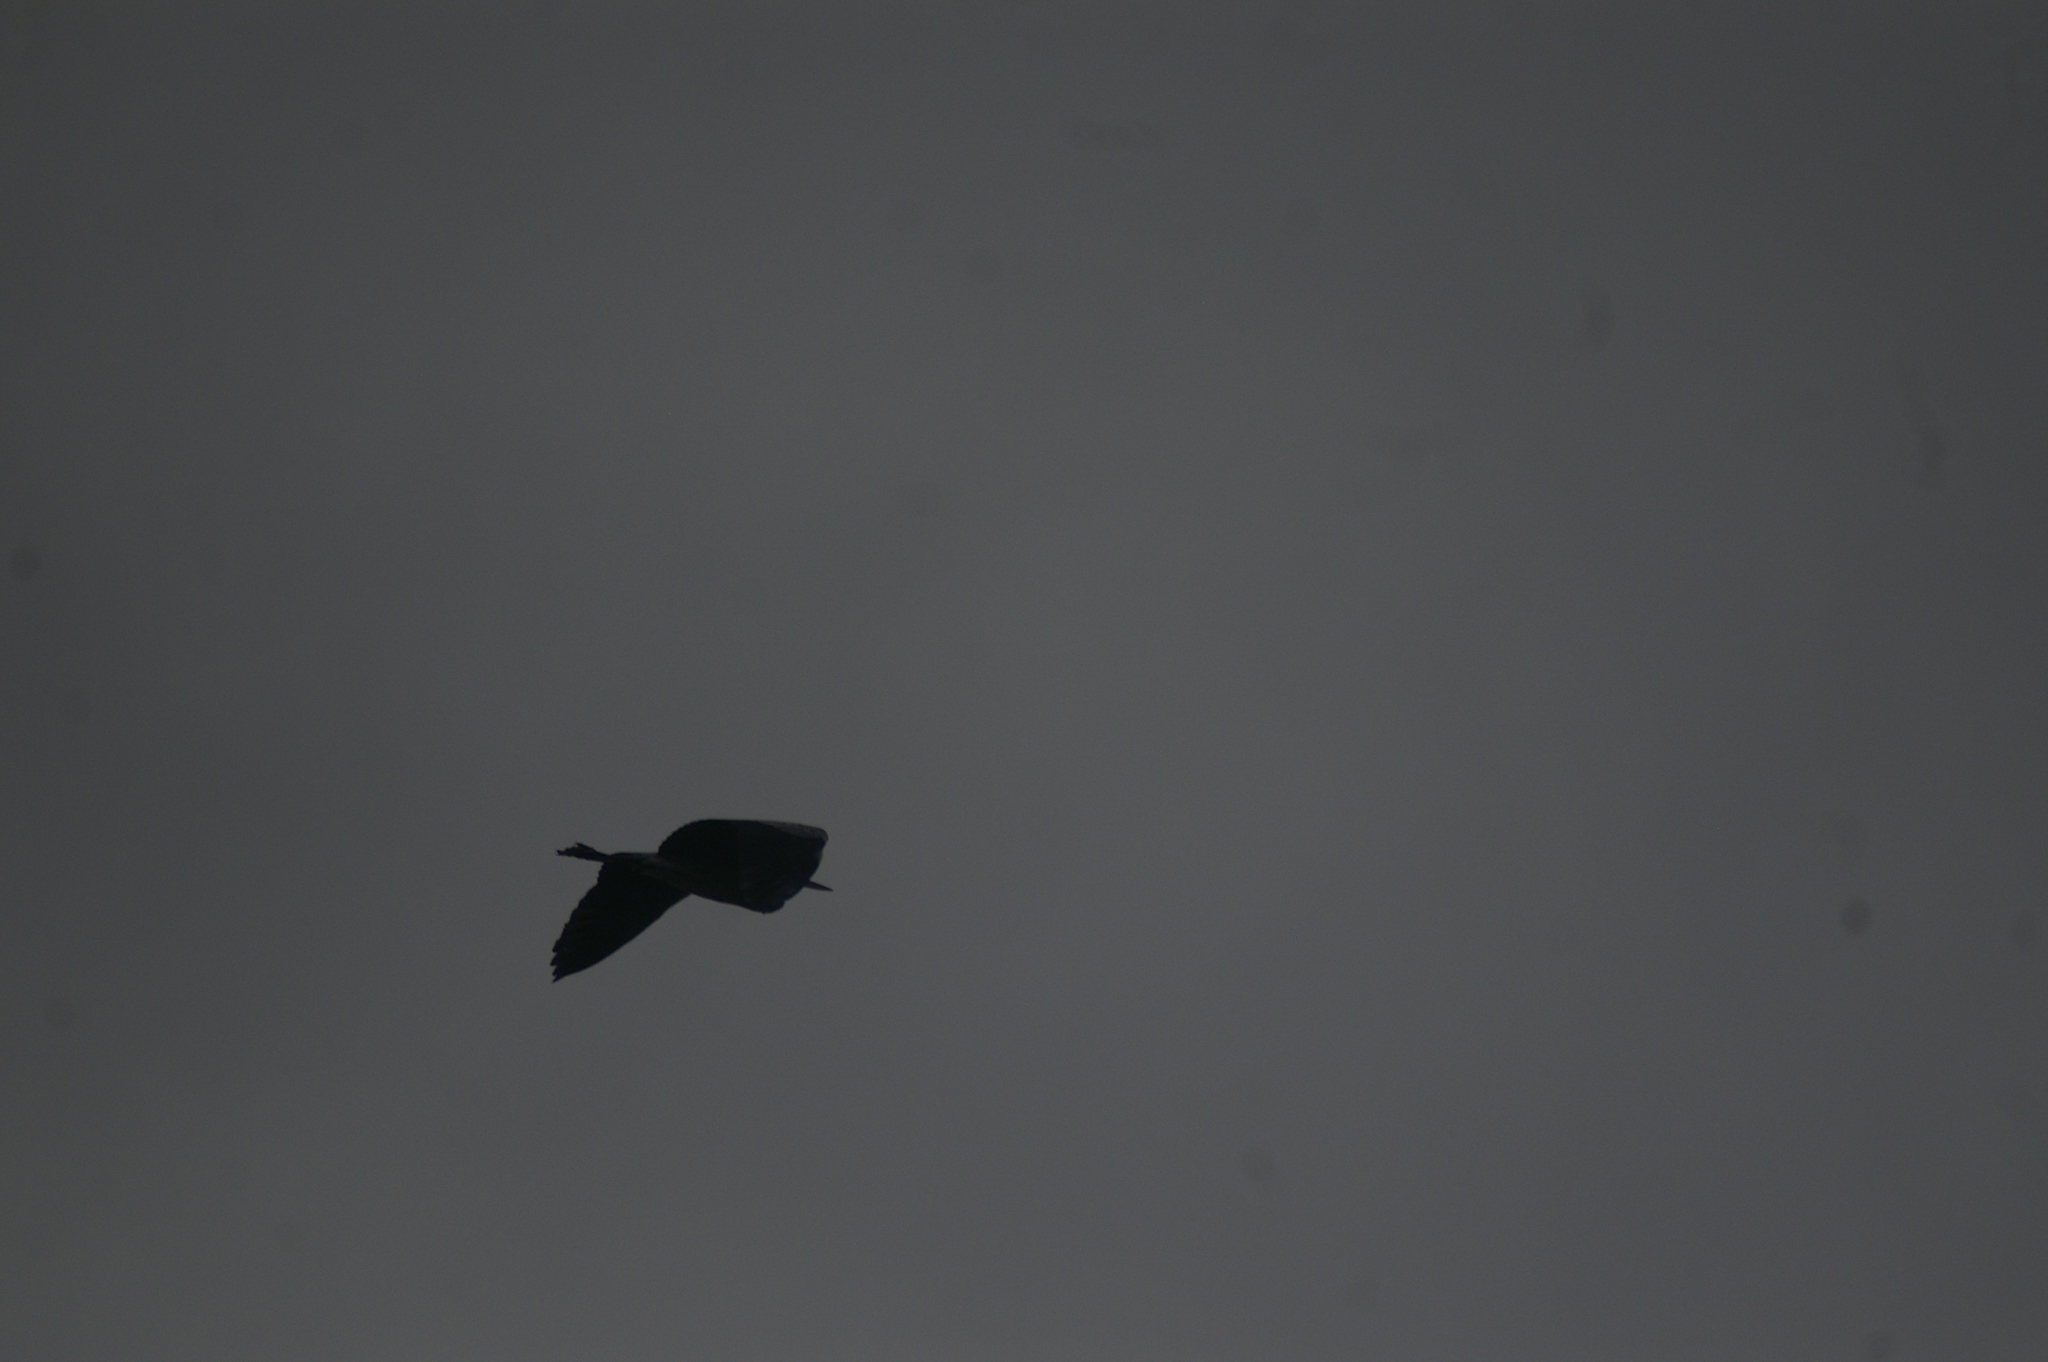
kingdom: Animalia
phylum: Chordata
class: Aves
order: Pelecaniformes
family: Ardeidae
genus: Ardea
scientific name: Ardea herodias
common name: Great blue heron
